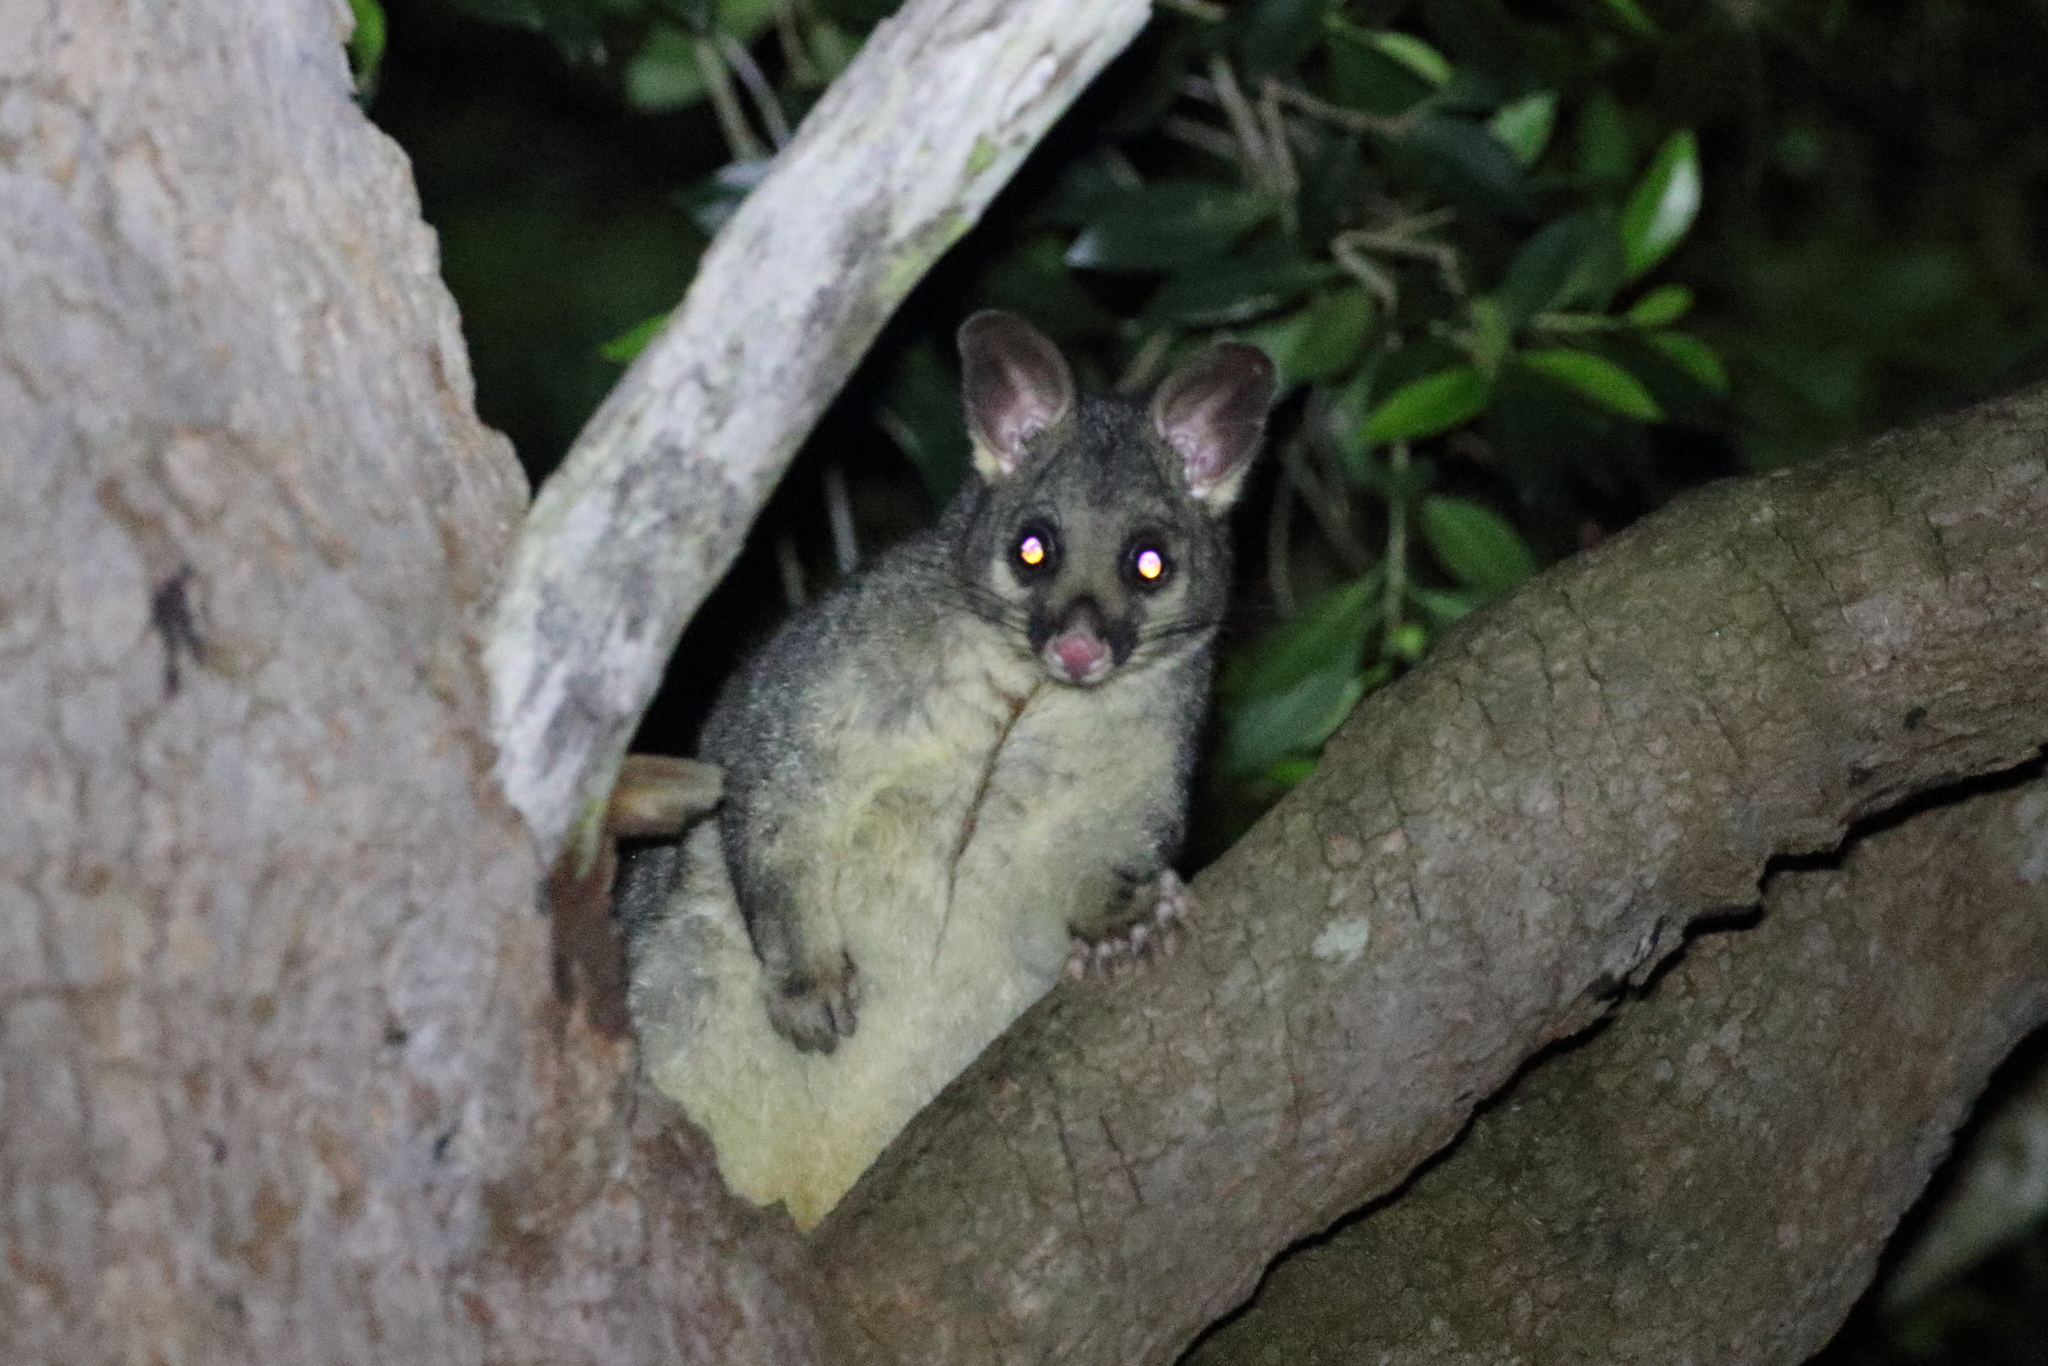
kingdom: Animalia
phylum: Chordata
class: Mammalia
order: Diprotodontia
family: Phalangeridae
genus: Trichosurus
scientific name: Trichosurus vulpecula
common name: Common brushtail
